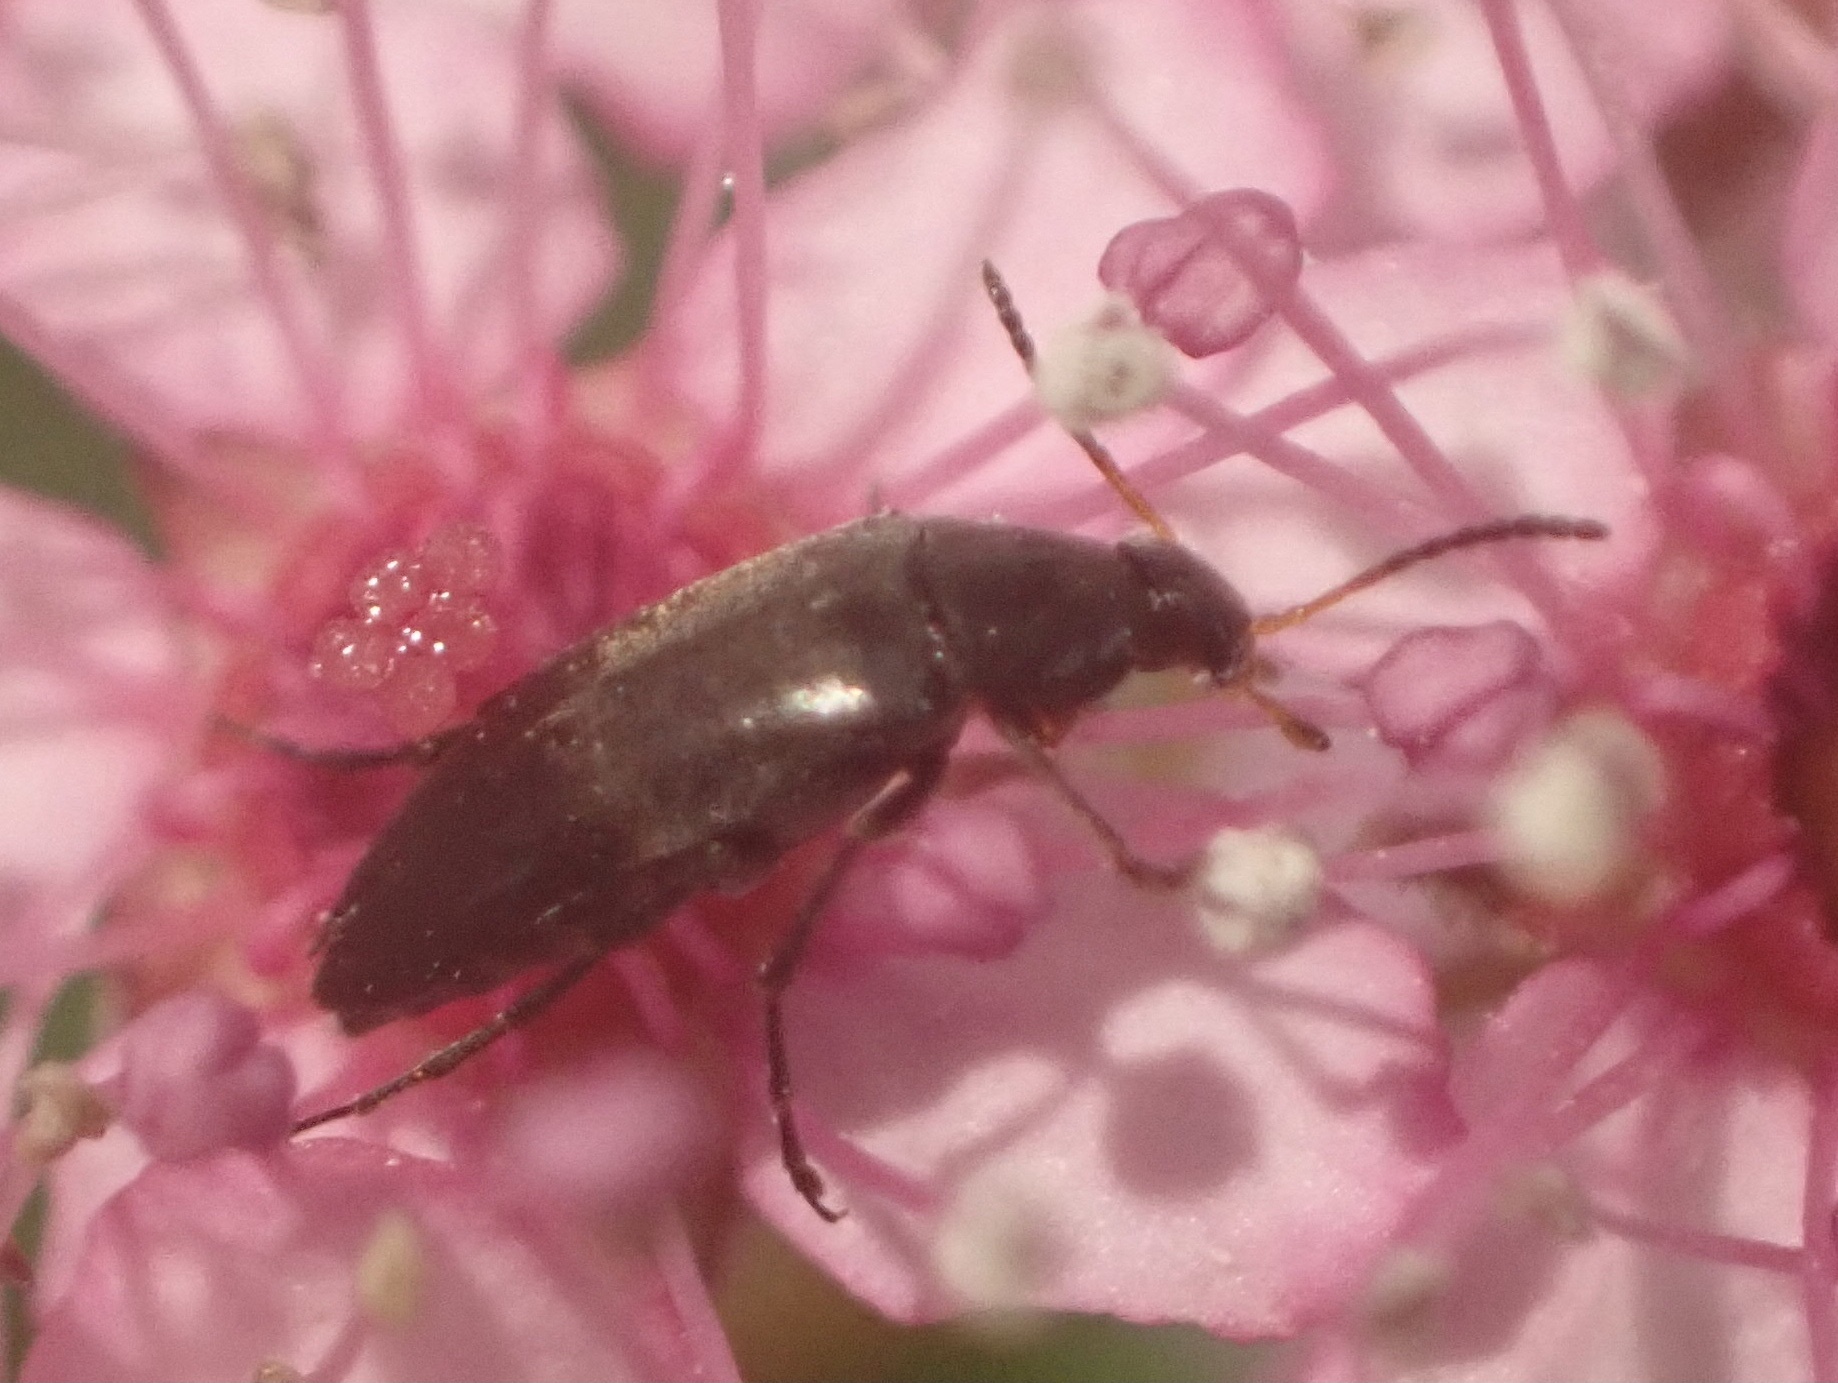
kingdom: Animalia
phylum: Arthropoda
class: Insecta
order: Coleoptera
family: Scraptiidae
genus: Anaspis
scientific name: Anaspis frontalis
